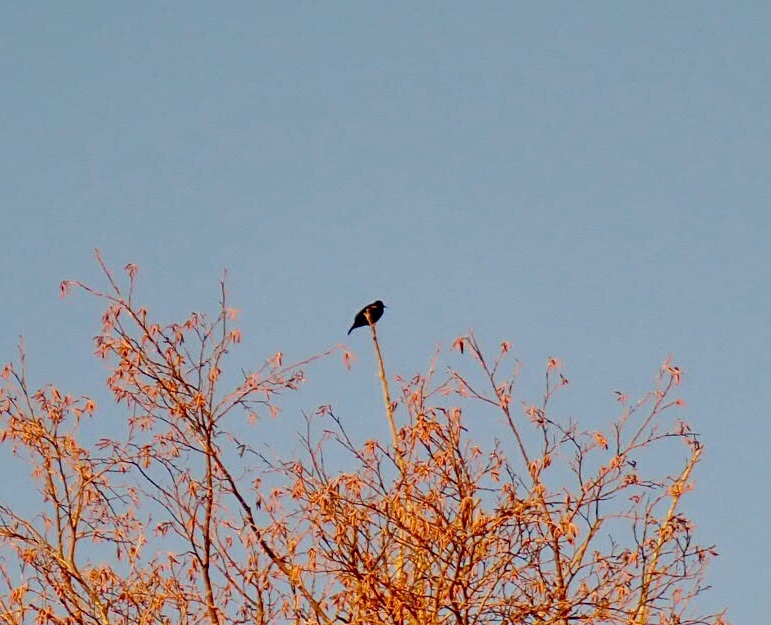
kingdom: Animalia
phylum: Chordata
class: Aves
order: Passeriformes
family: Icteridae
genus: Agelaius
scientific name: Agelaius phoeniceus
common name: Red-winged blackbird
